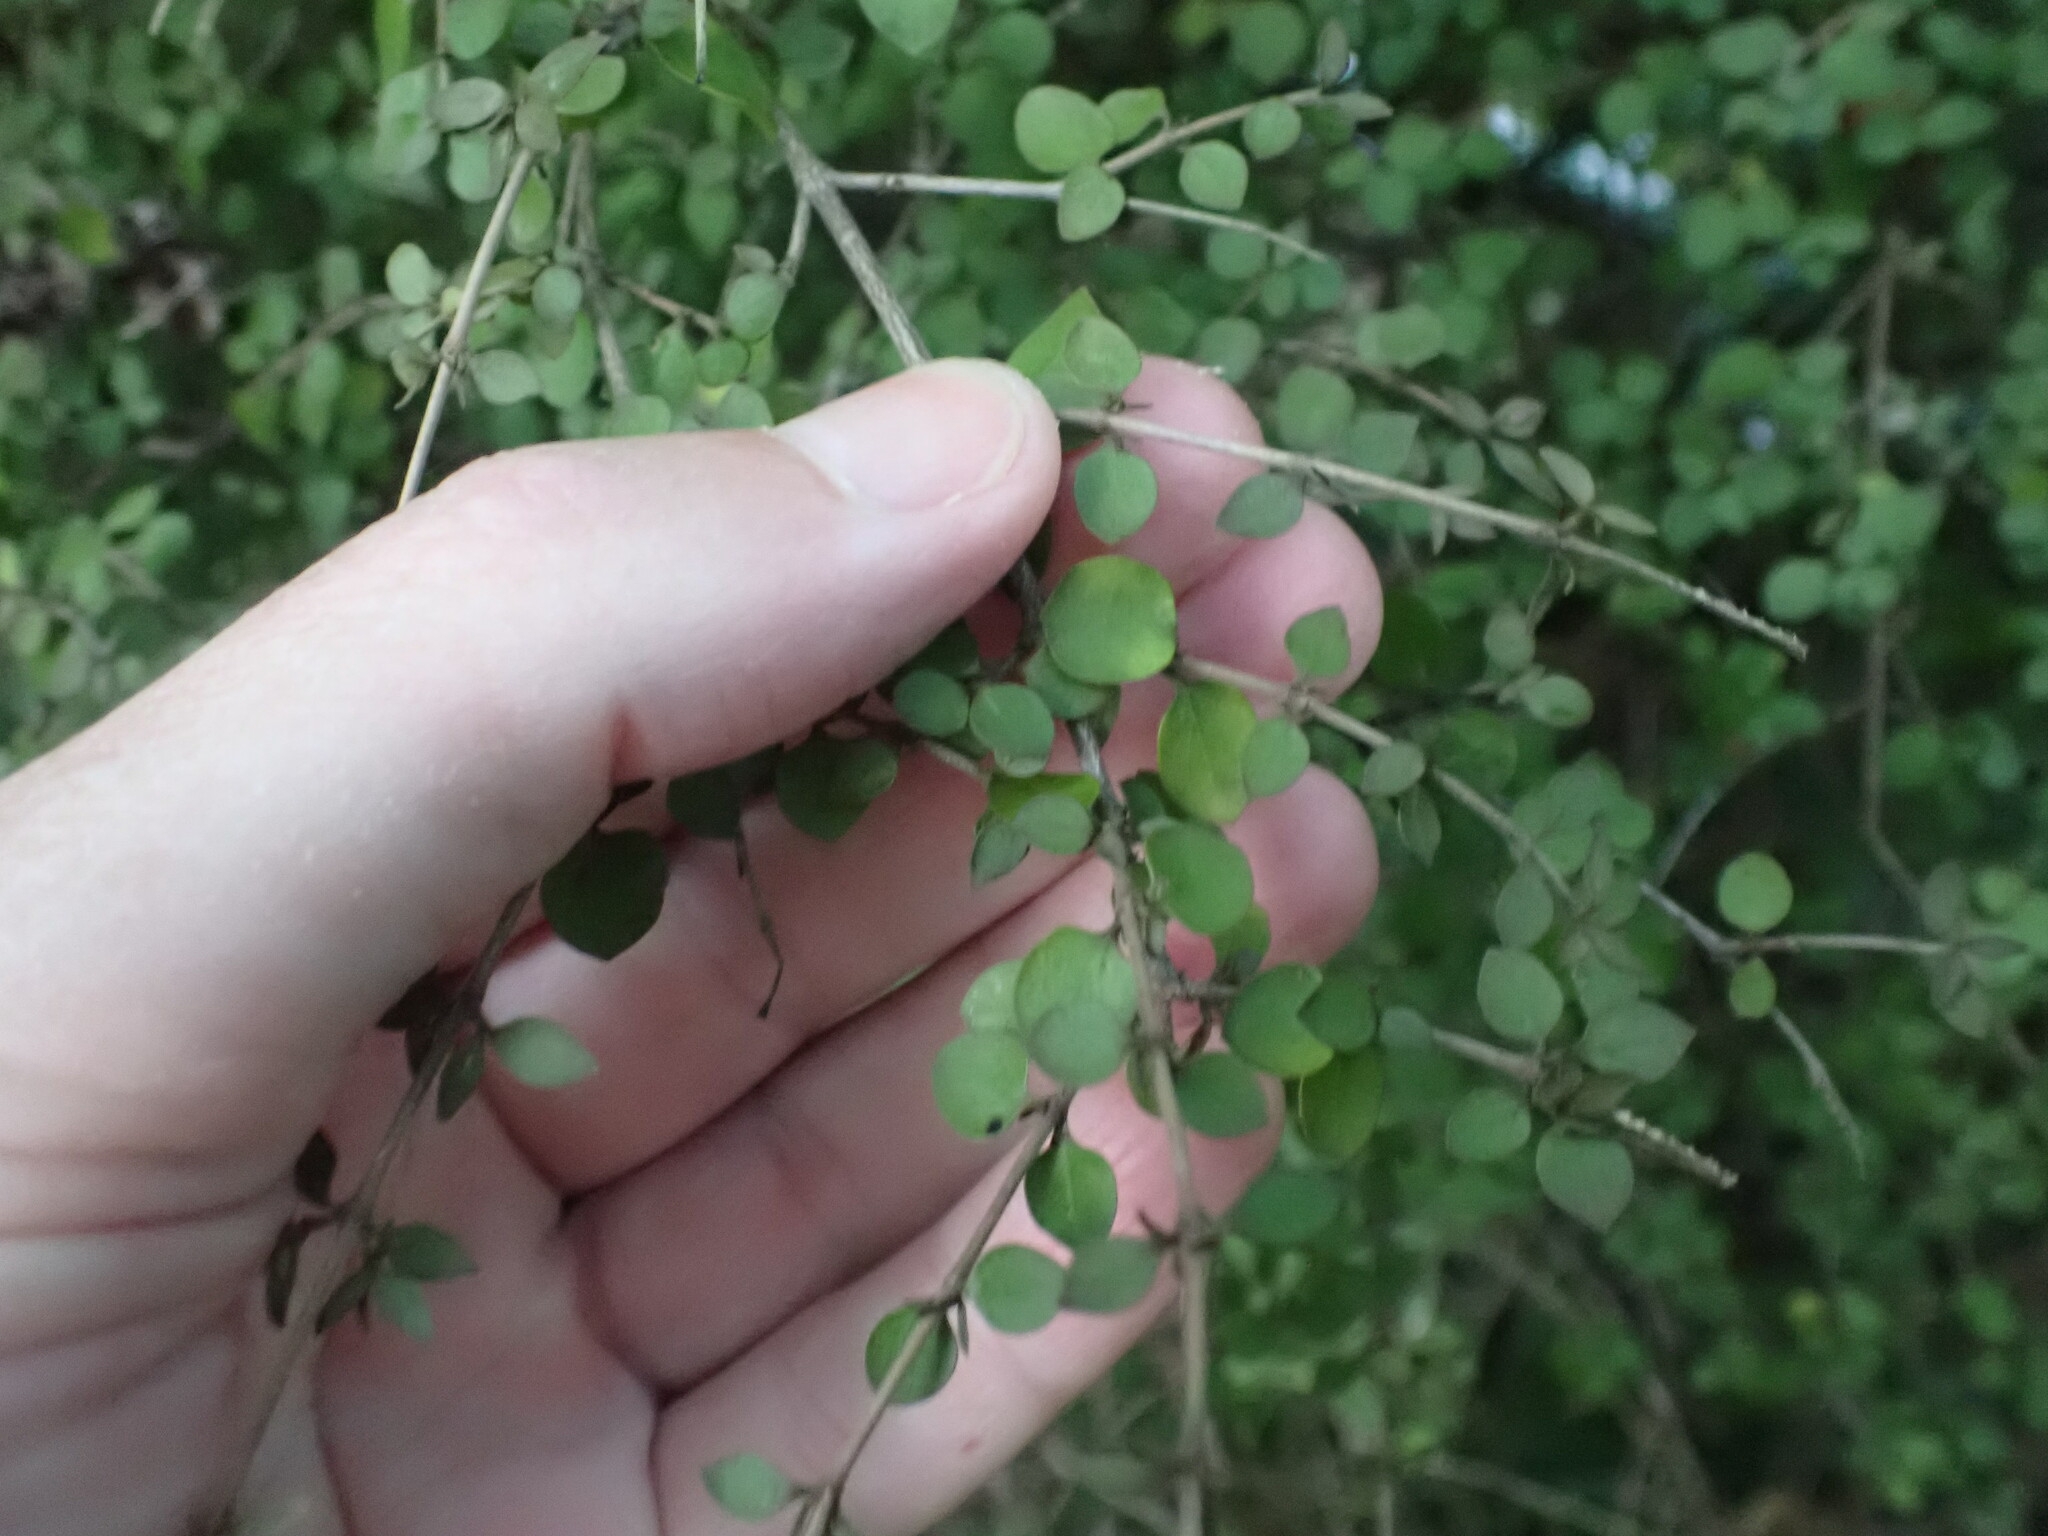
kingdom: Plantae
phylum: Tracheophyta
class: Magnoliopsida
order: Gentianales
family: Rubiaceae
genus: Coprosma
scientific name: Coprosma rhamnoides
